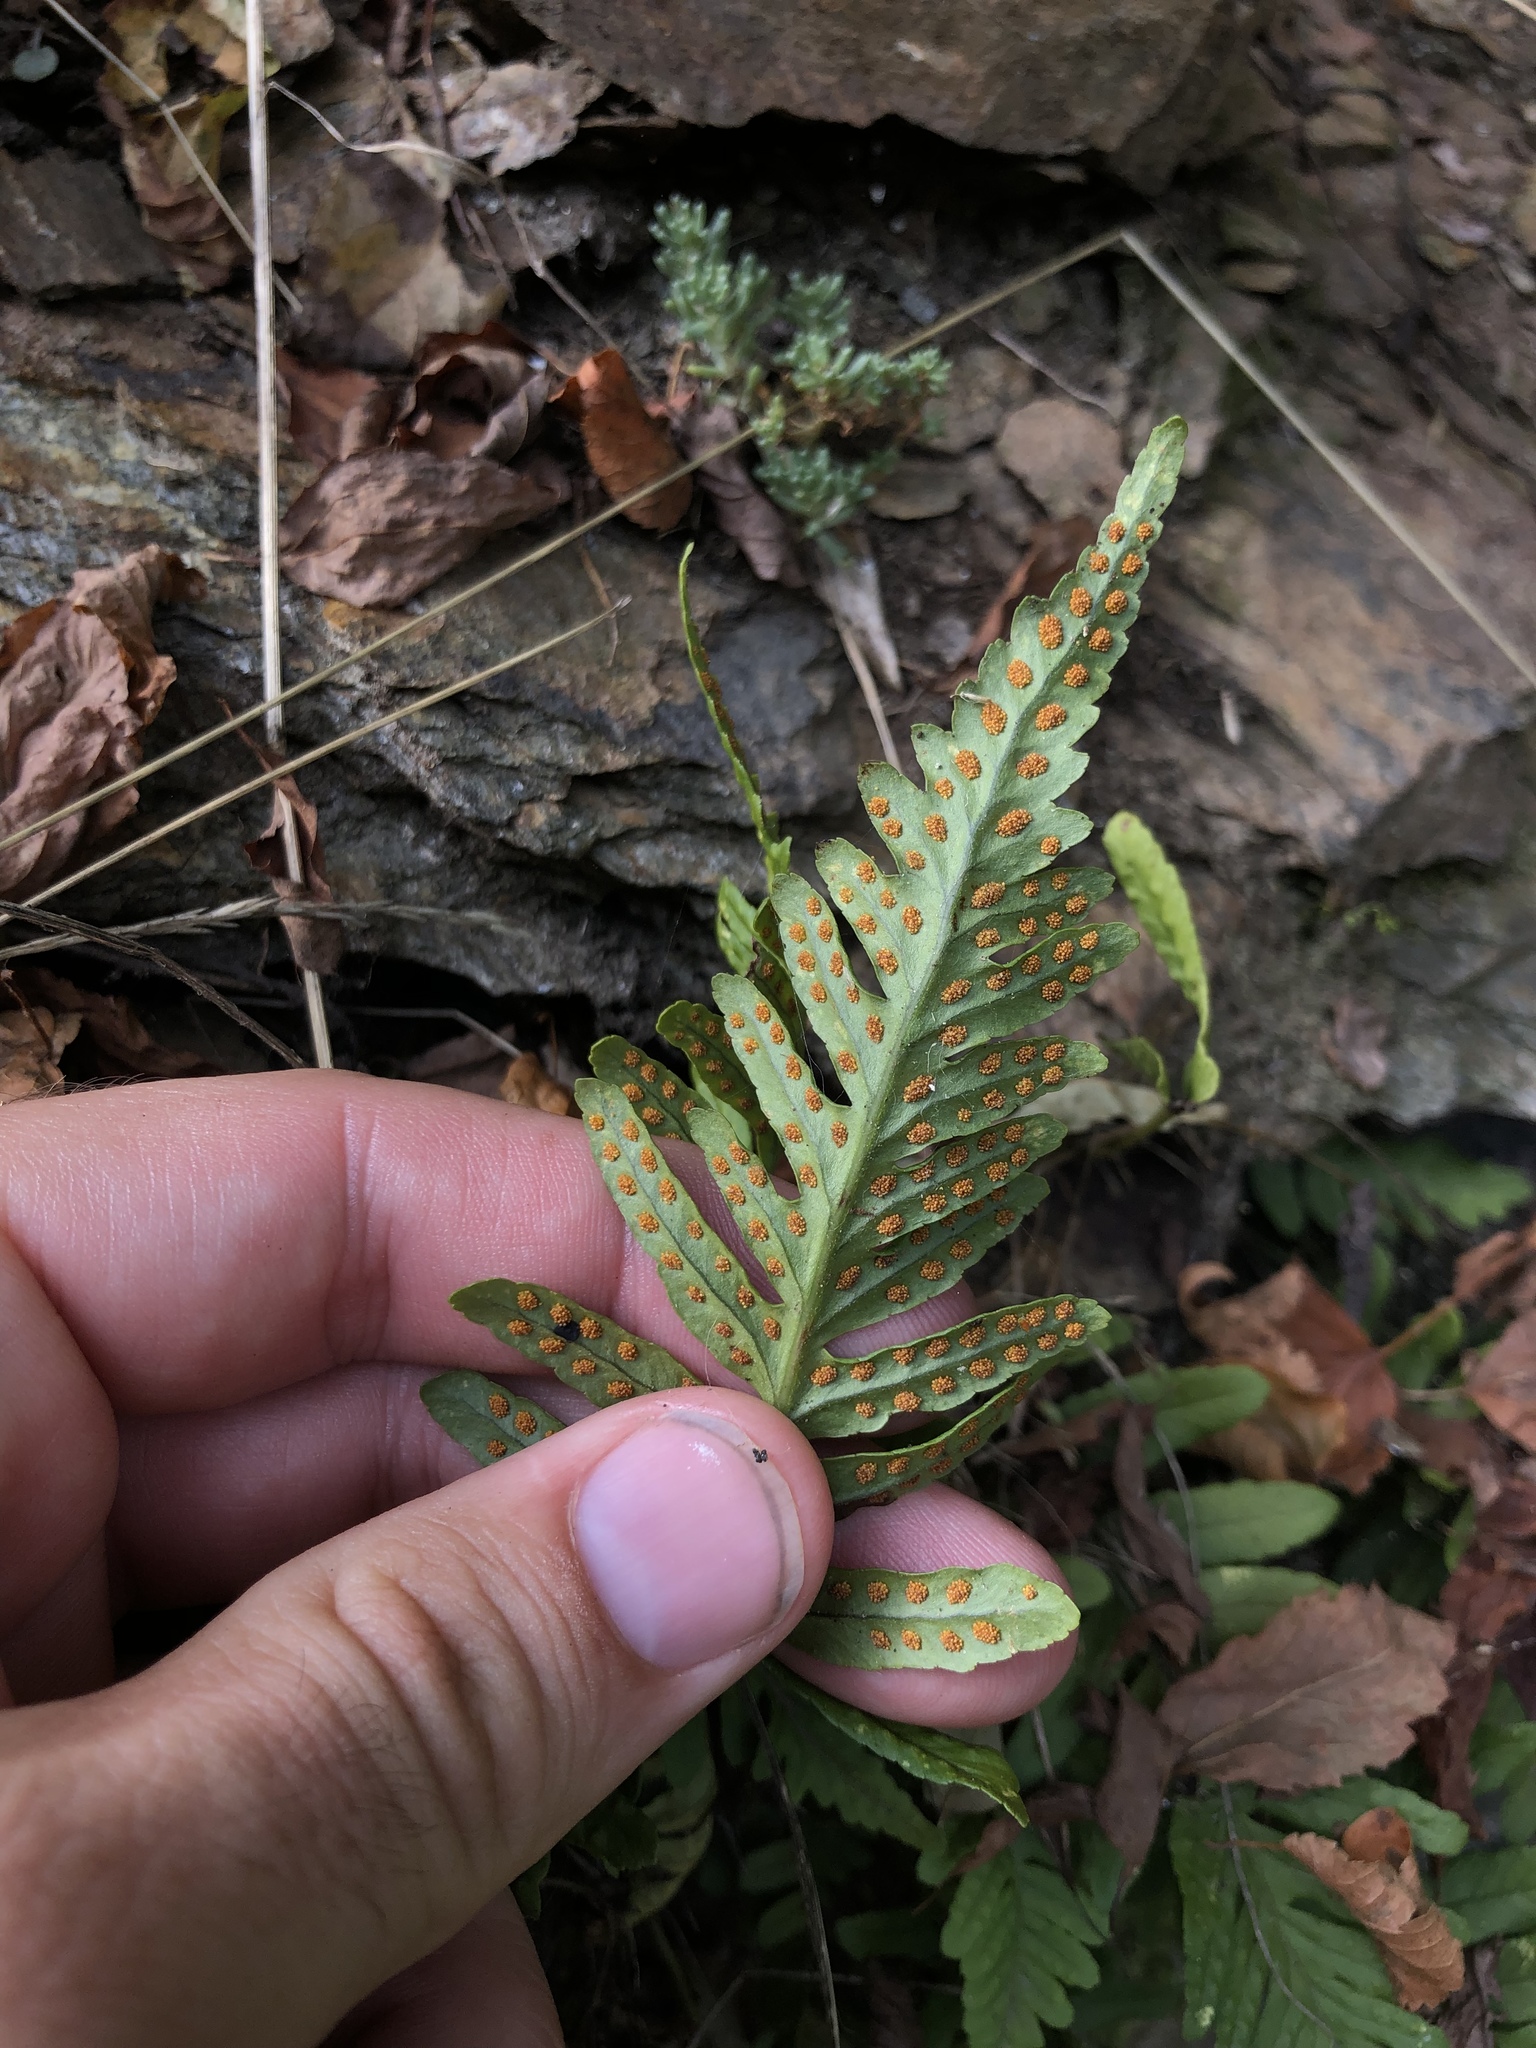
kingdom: Plantae
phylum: Tracheophyta
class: Polypodiopsida
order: Polypodiales
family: Polypodiaceae
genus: Polypodium
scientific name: Polypodium vulgare
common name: Common polypody
